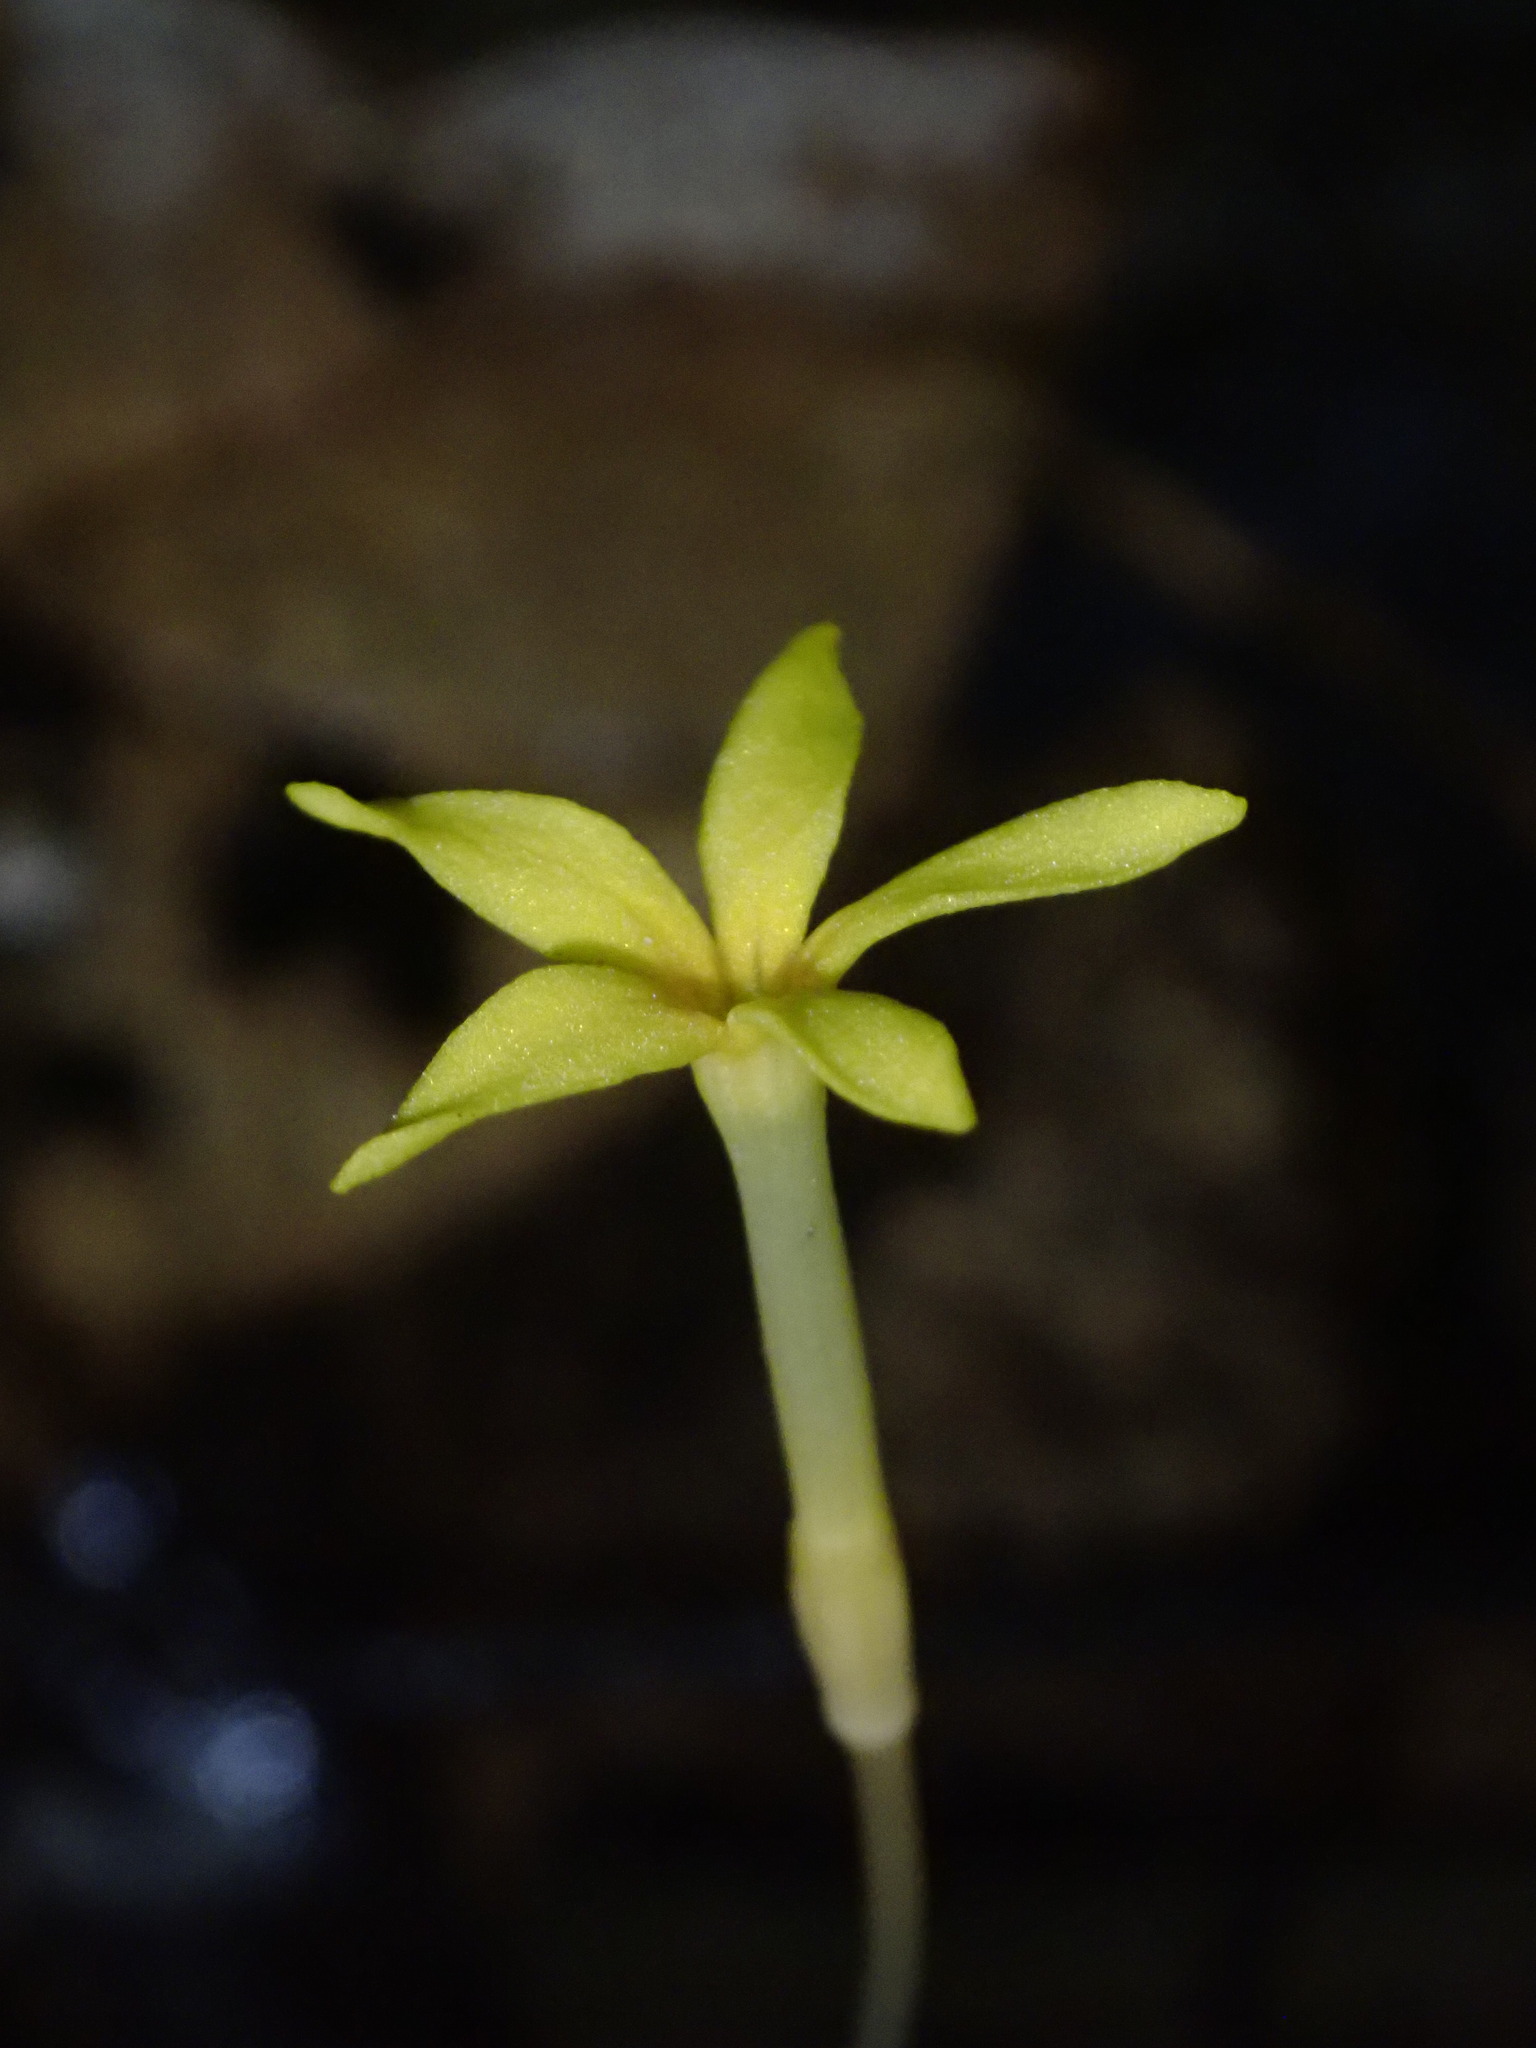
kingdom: Plantae
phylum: Tracheophyta
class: Magnoliopsida
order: Gentianales
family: Gentianaceae
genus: Voyria
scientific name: Voyria aphylla
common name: Leafless ghost plant
